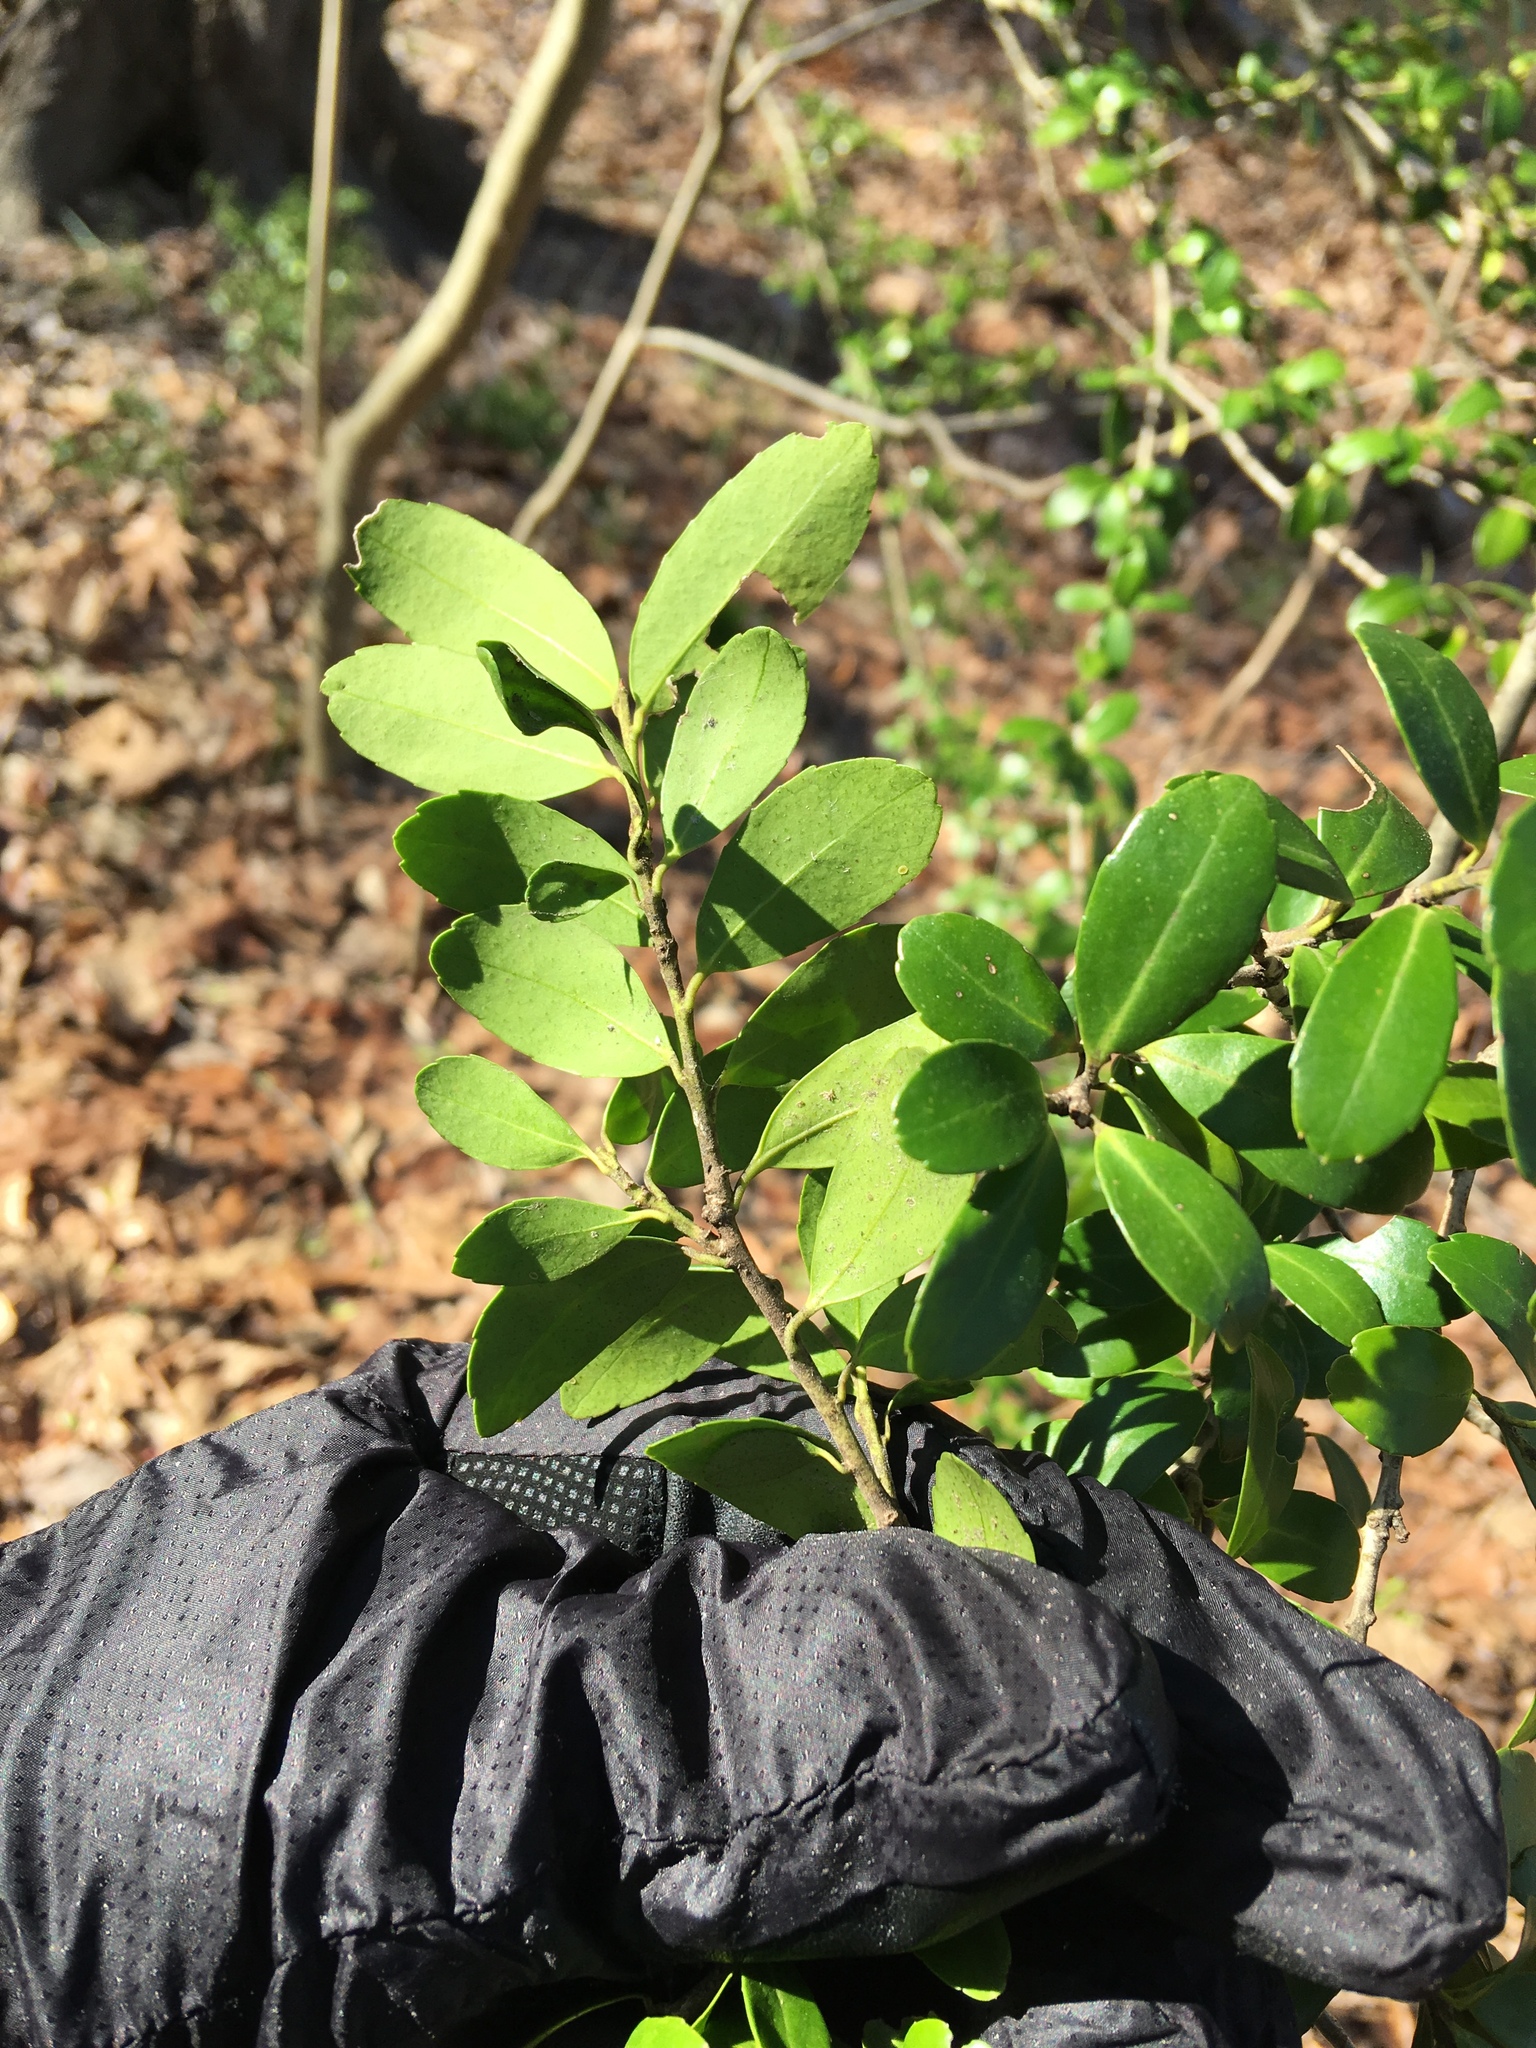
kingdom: Plantae
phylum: Tracheophyta
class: Magnoliopsida
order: Aquifoliales
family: Aquifoliaceae
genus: Ilex
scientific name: Ilex crenata
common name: Japanese holly
